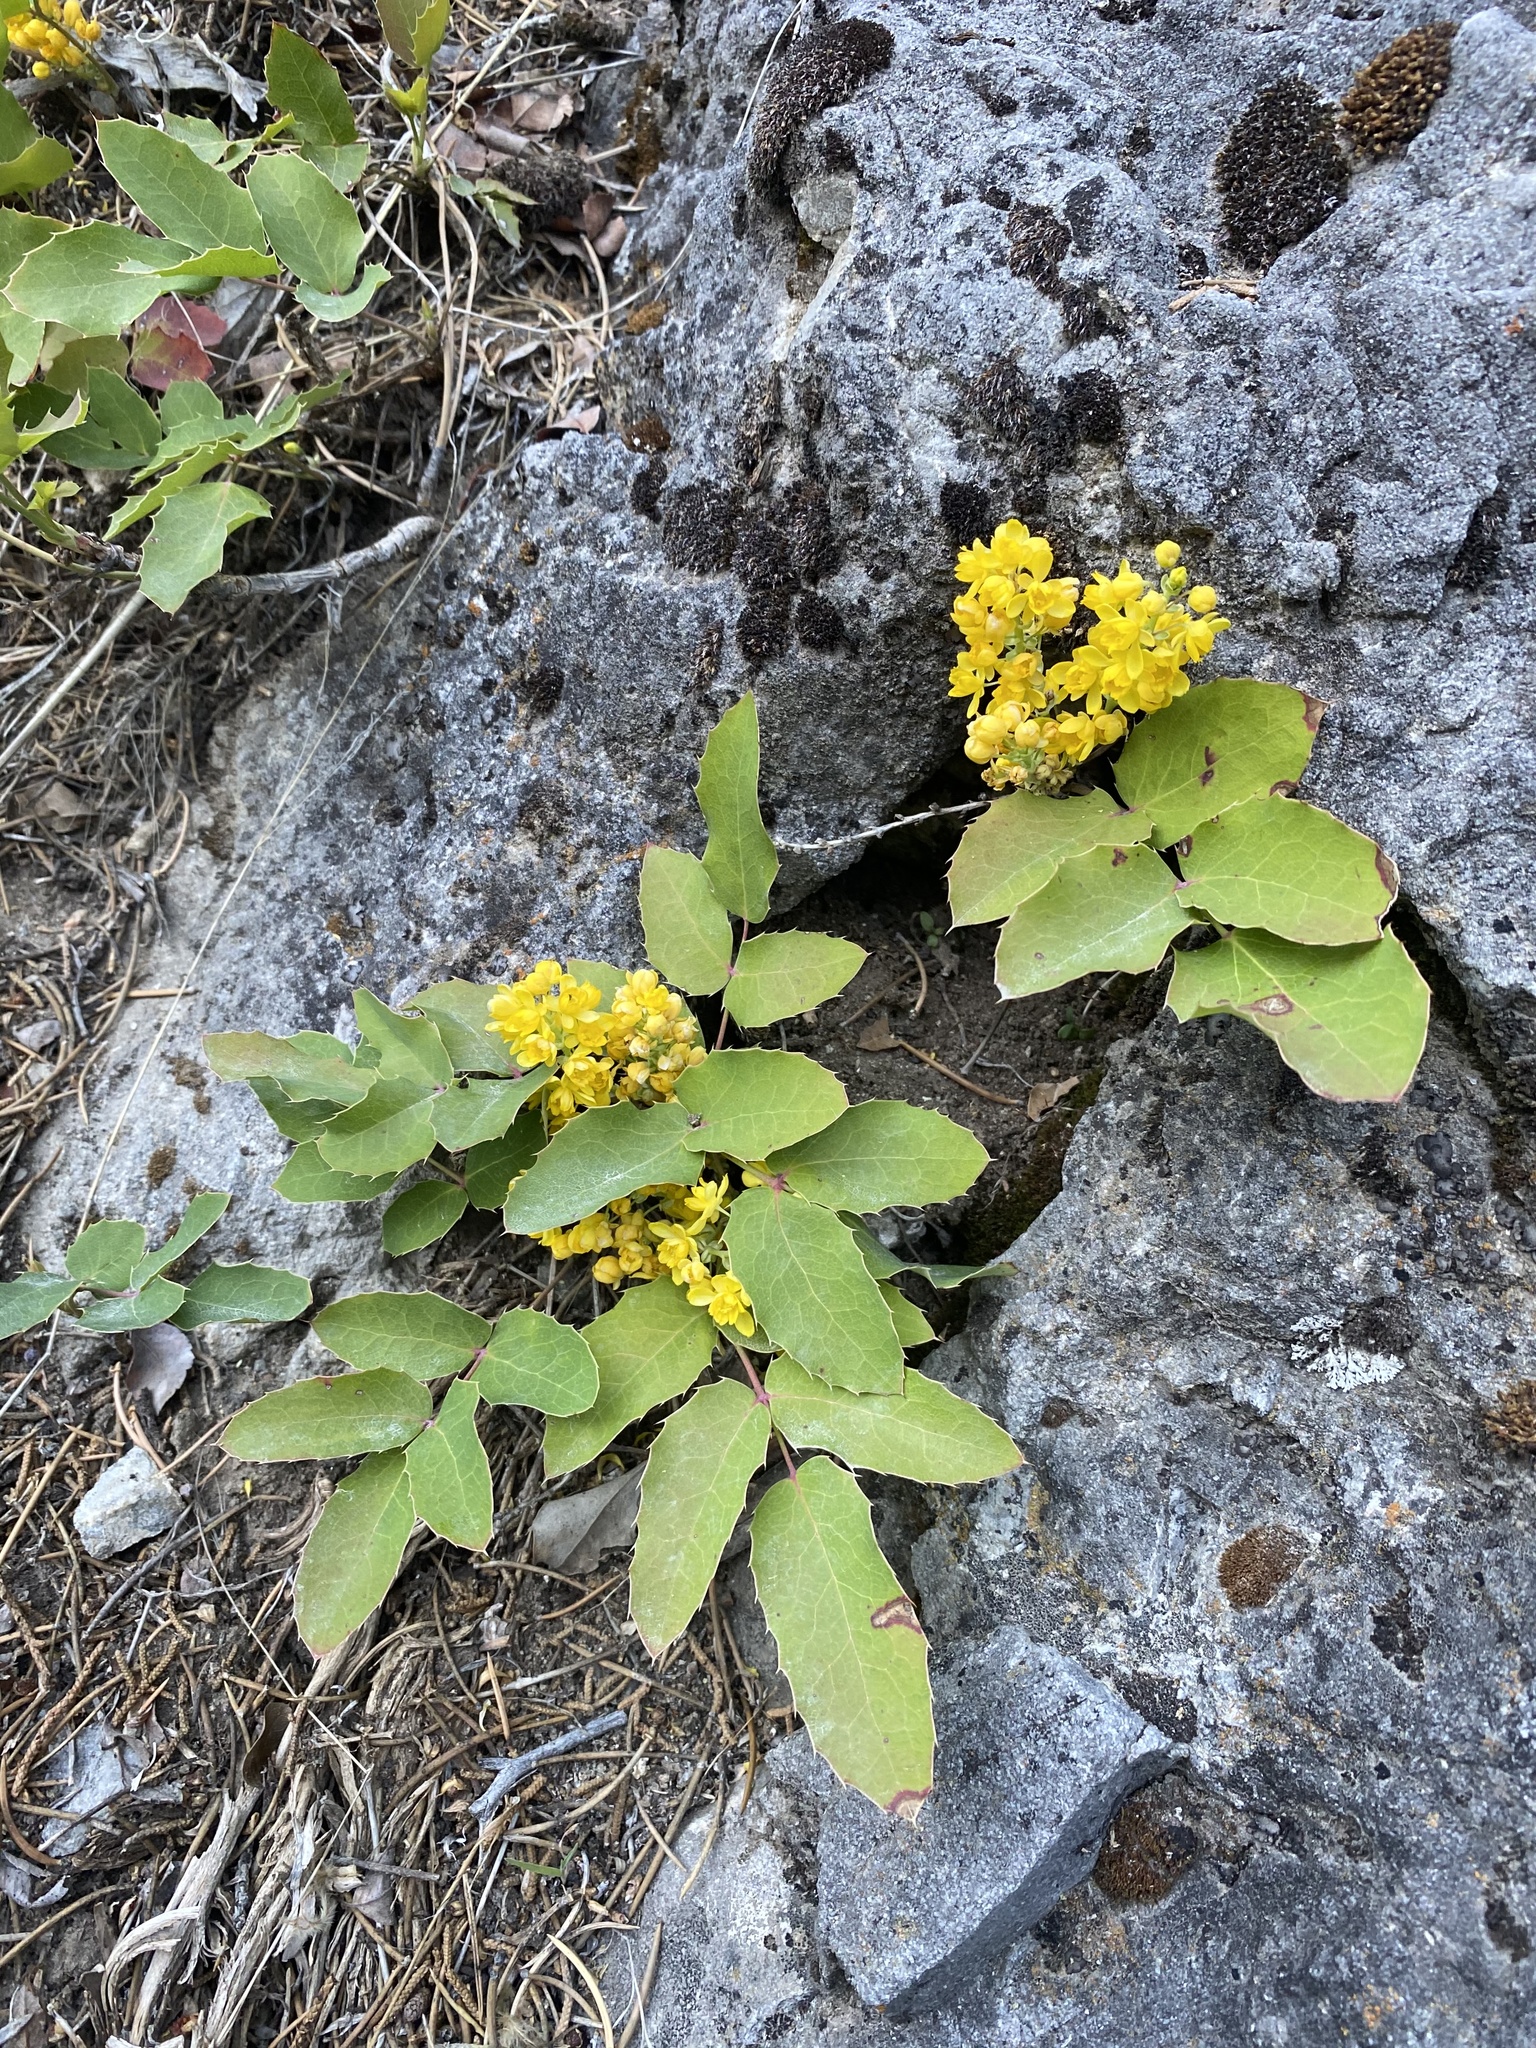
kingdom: Plantae
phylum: Tracheophyta
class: Magnoliopsida
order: Ranunculales
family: Berberidaceae
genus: Mahonia
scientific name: Mahonia repens
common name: Creeping oregon-grape
